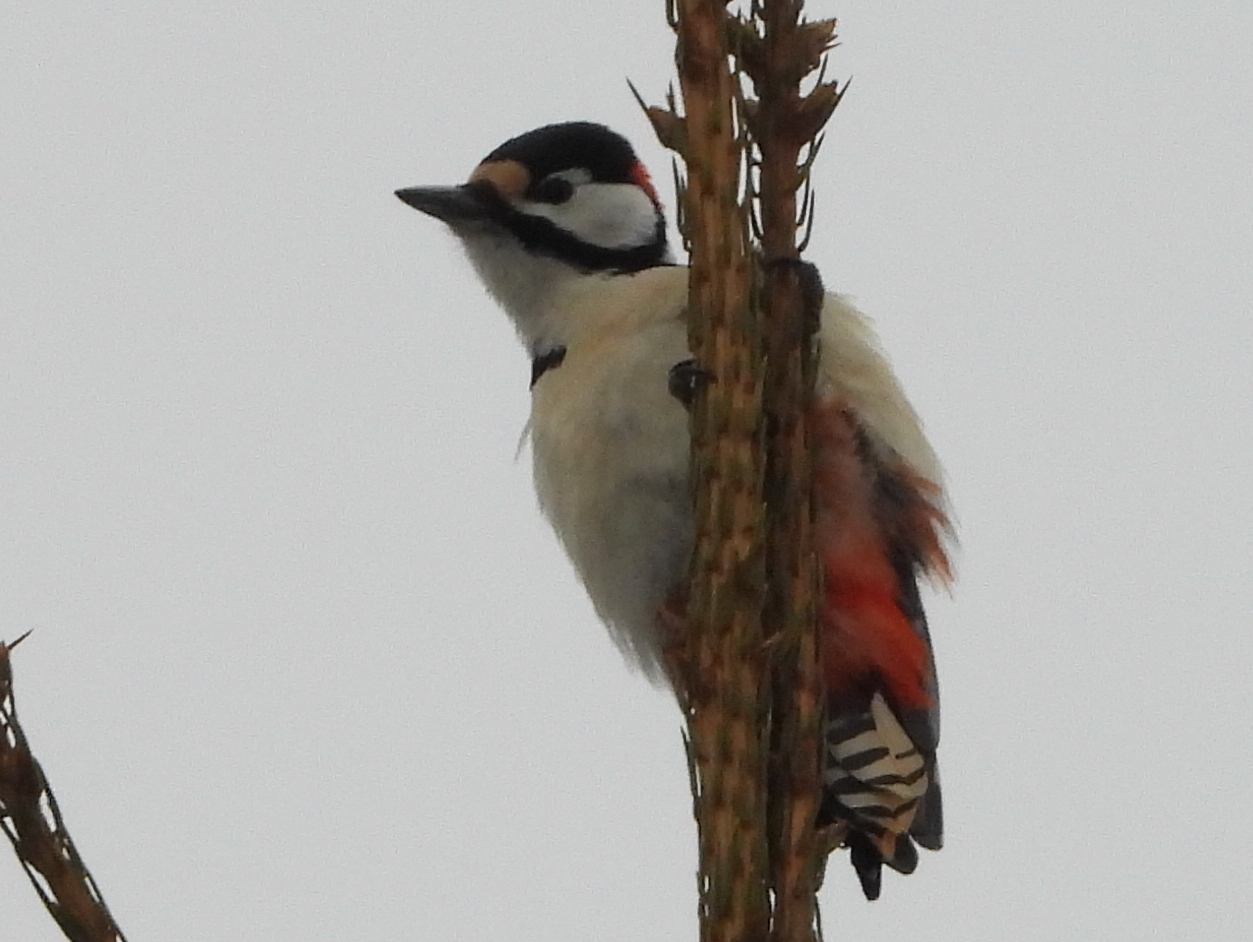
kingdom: Animalia
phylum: Chordata
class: Aves
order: Piciformes
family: Picidae
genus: Dendrocopos
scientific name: Dendrocopos major
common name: Great spotted woodpecker
